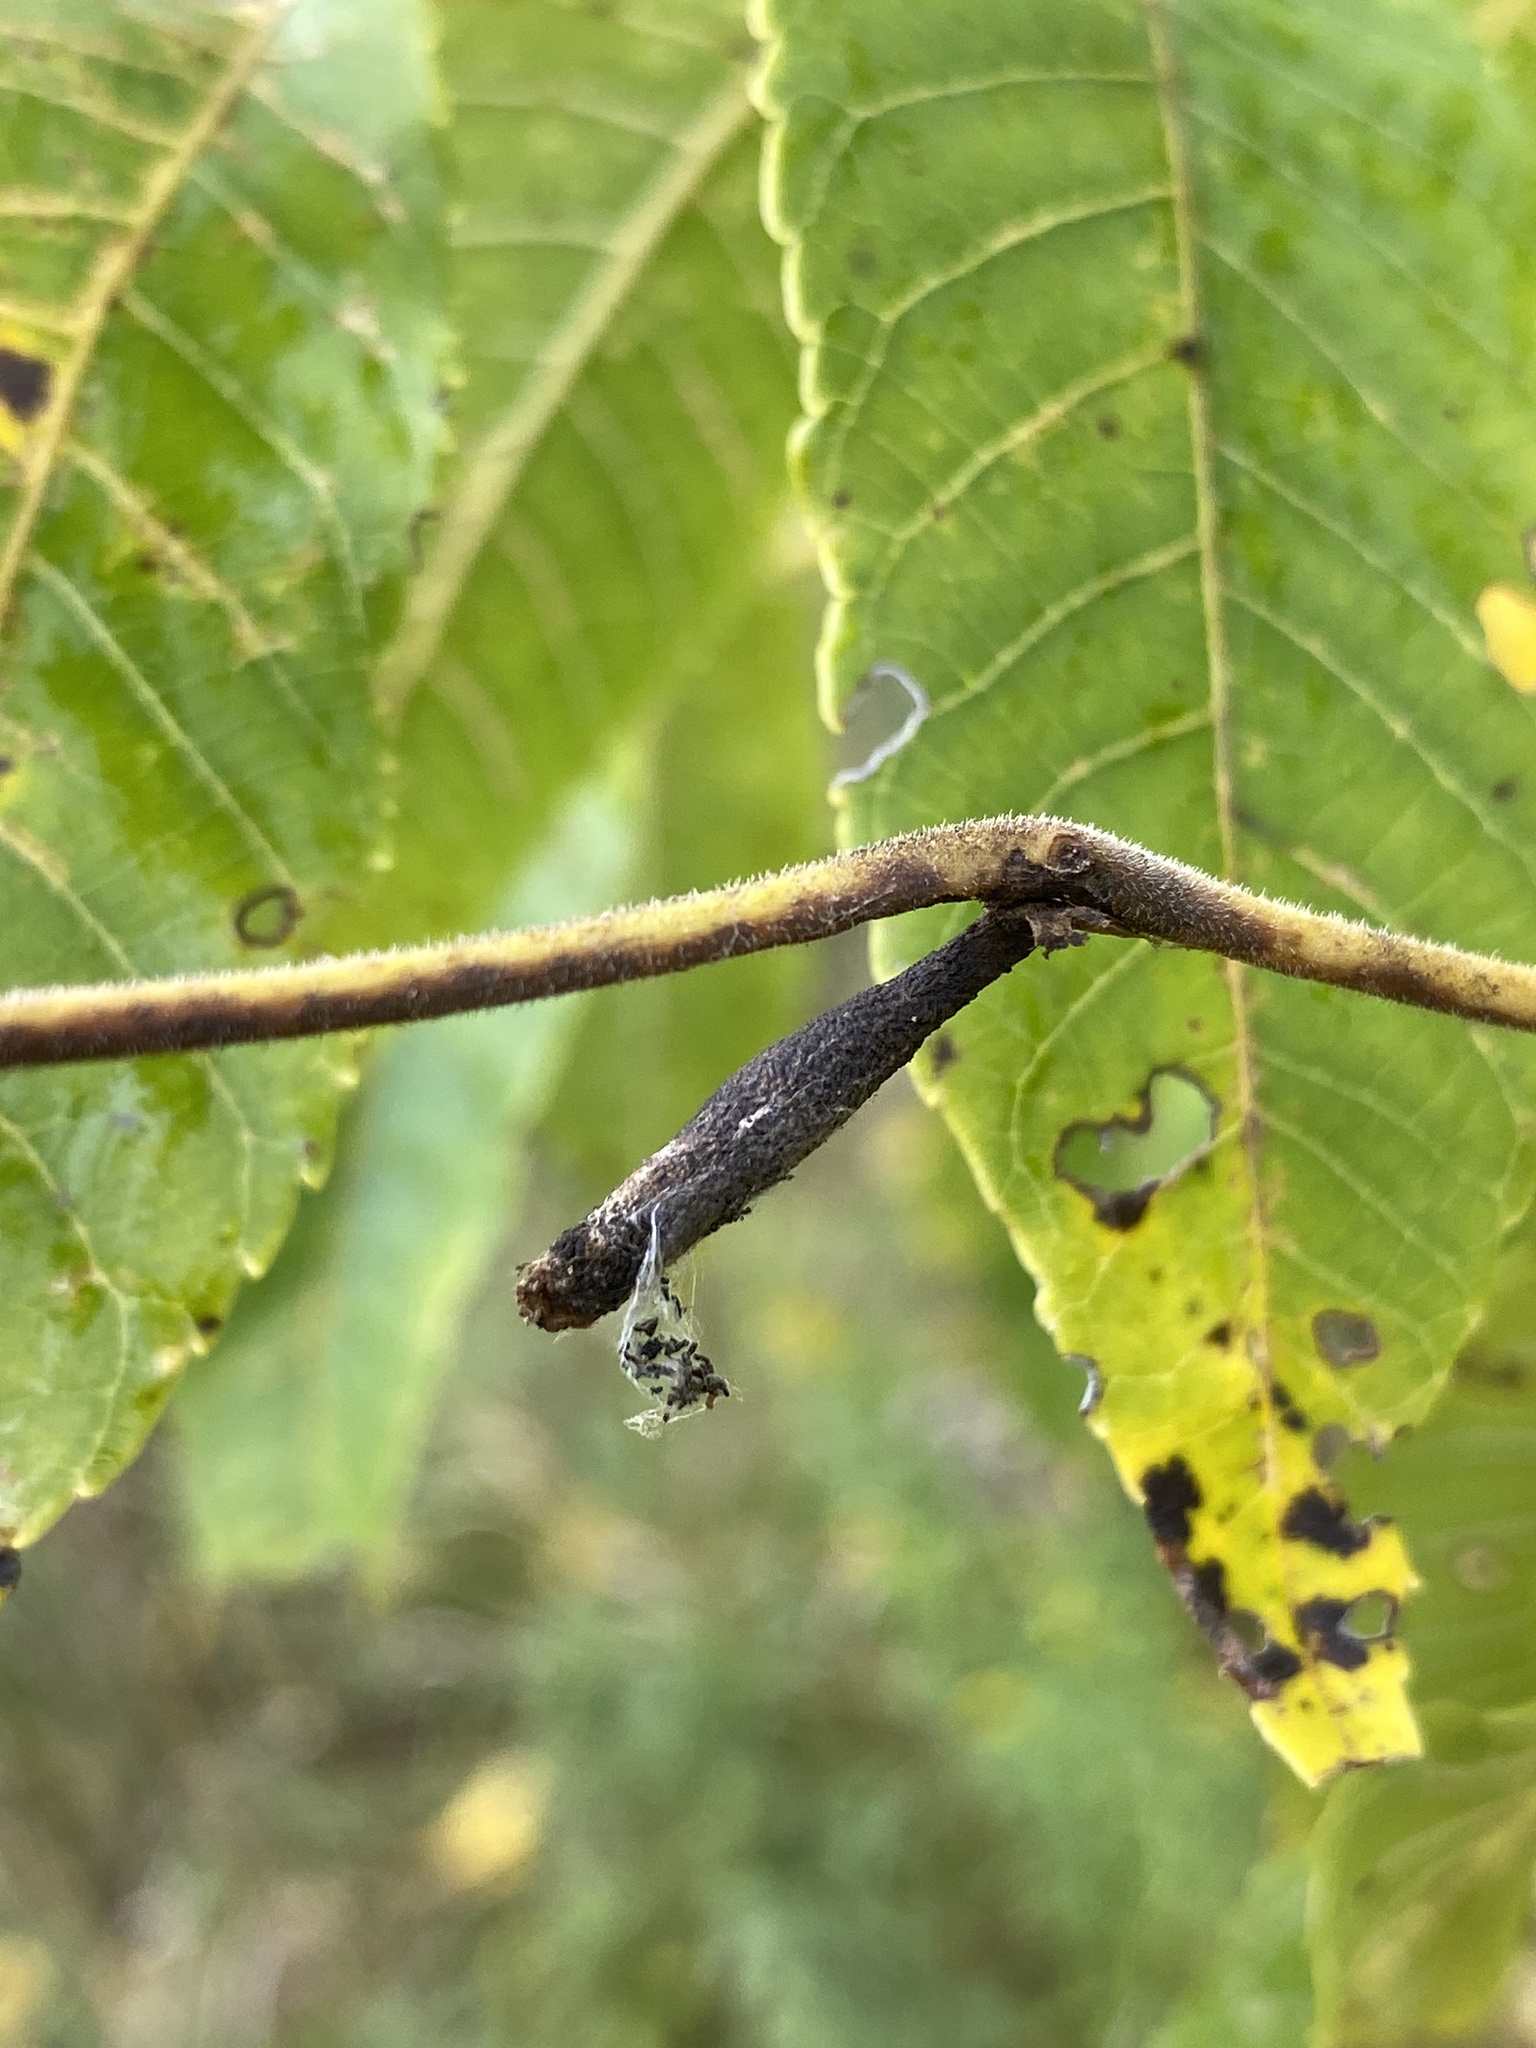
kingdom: Animalia
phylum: Arthropoda
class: Insecta
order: Lepidoptera
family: Pyralidae
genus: Acrobasis
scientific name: Acrobasis juglandis
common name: Pecan leaf casebearer moth
